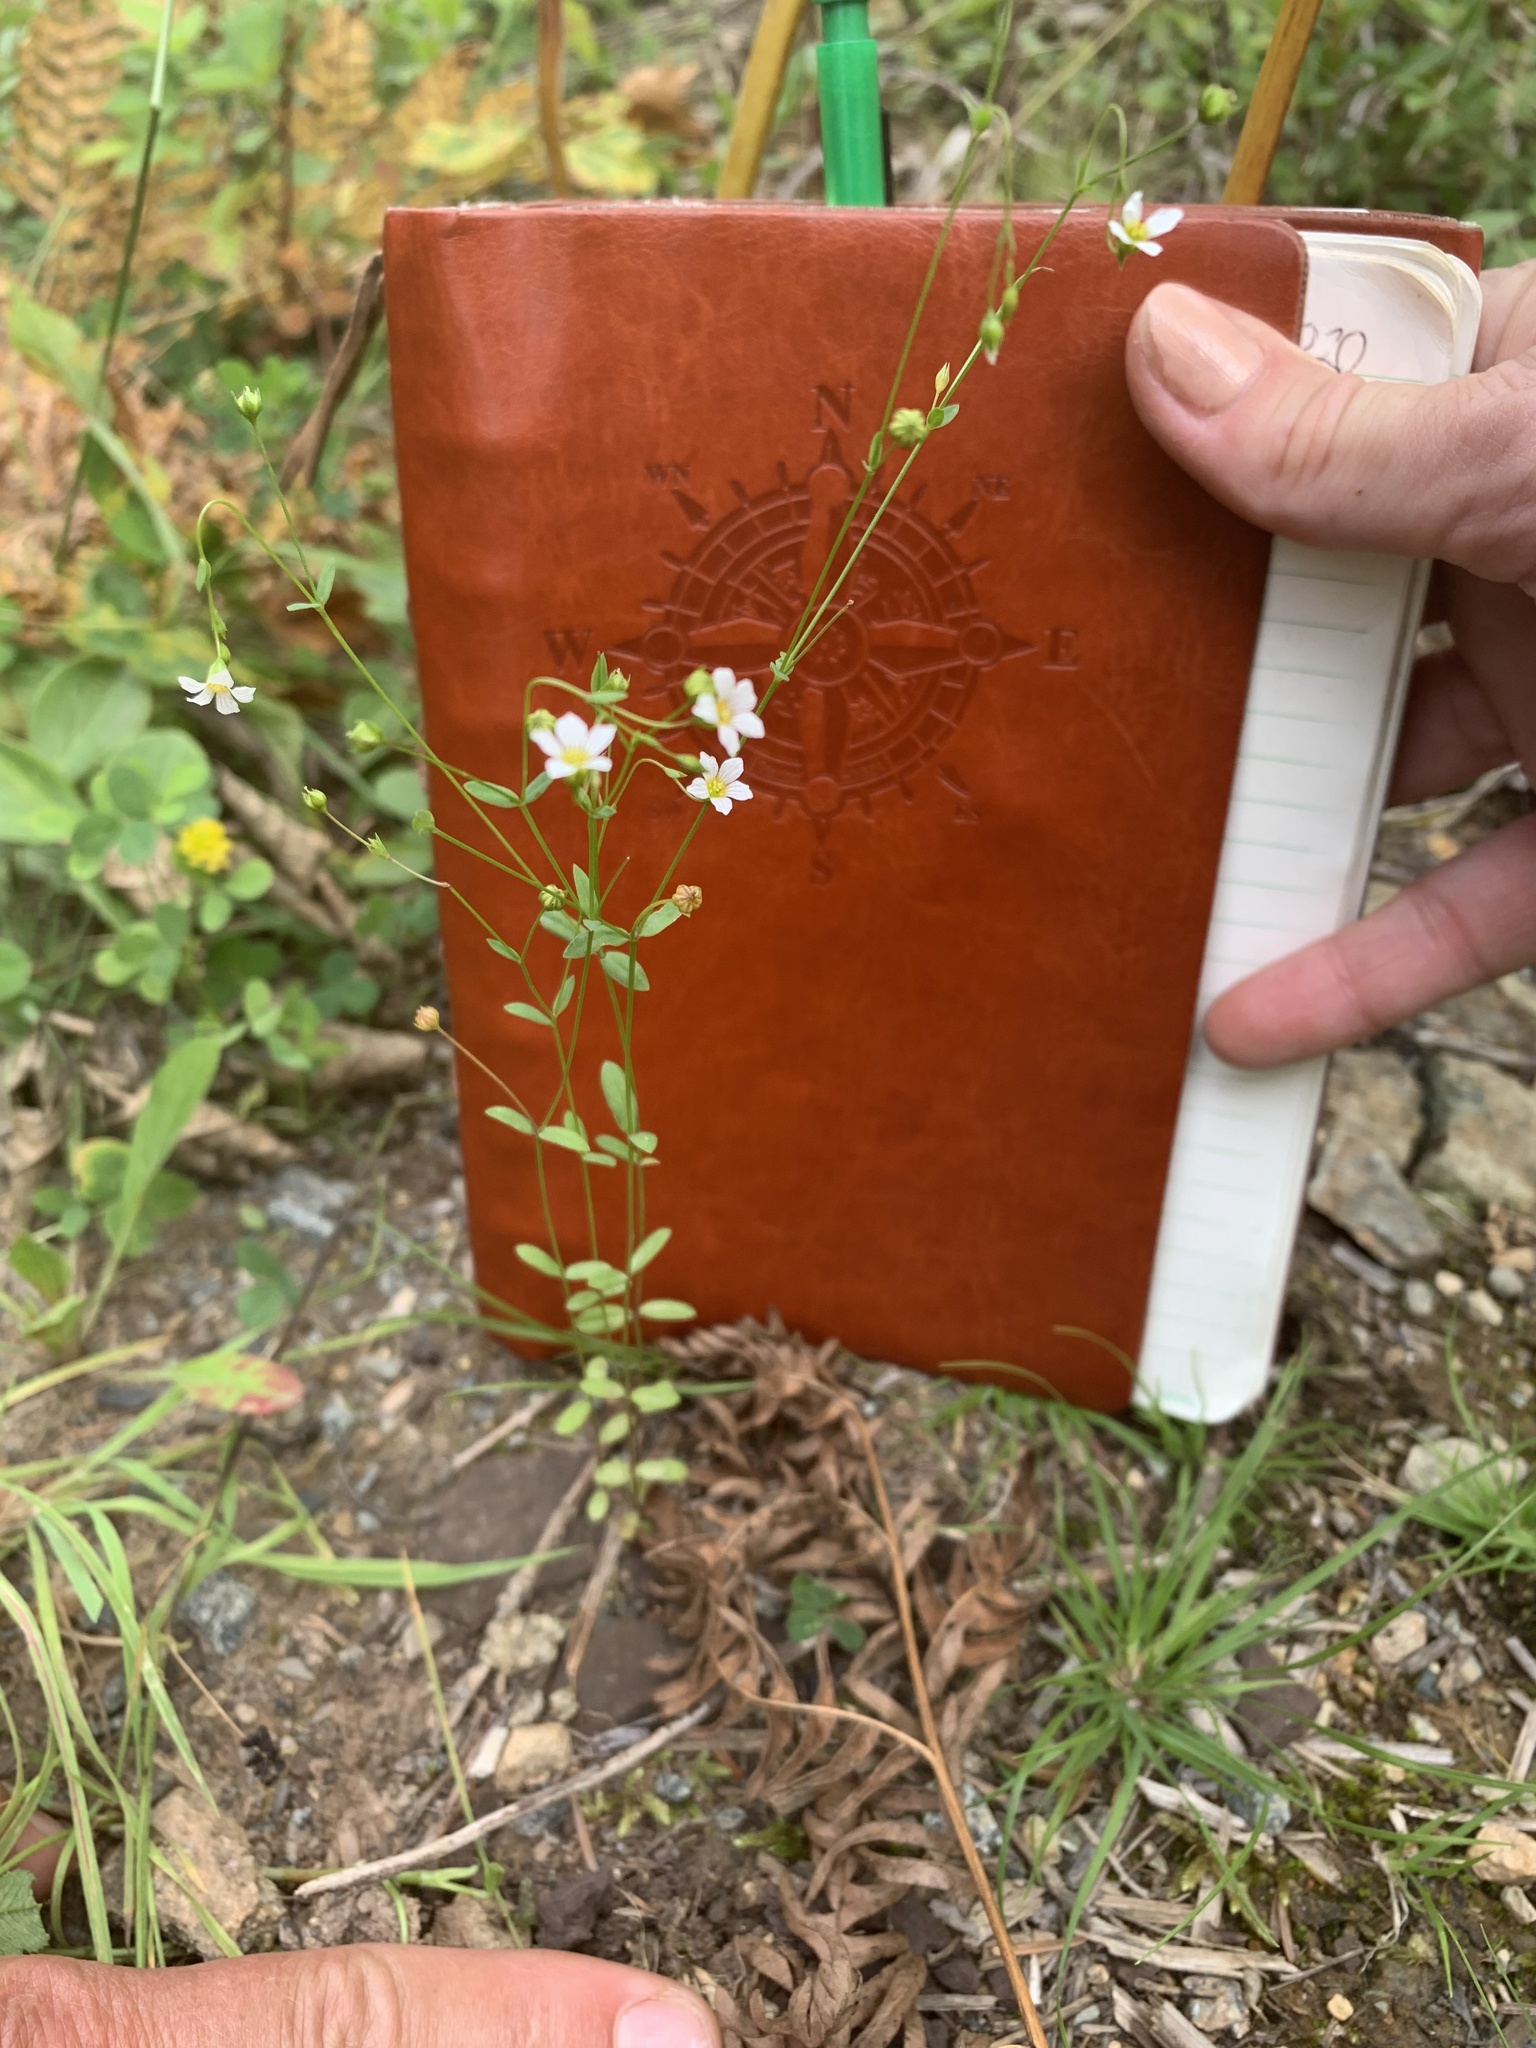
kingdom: Plantae
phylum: Tracheophyta
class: Magnoliopsida
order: Malpighiales
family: Linaceae
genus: Linum
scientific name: Linum catharticum
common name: Fairy flax
